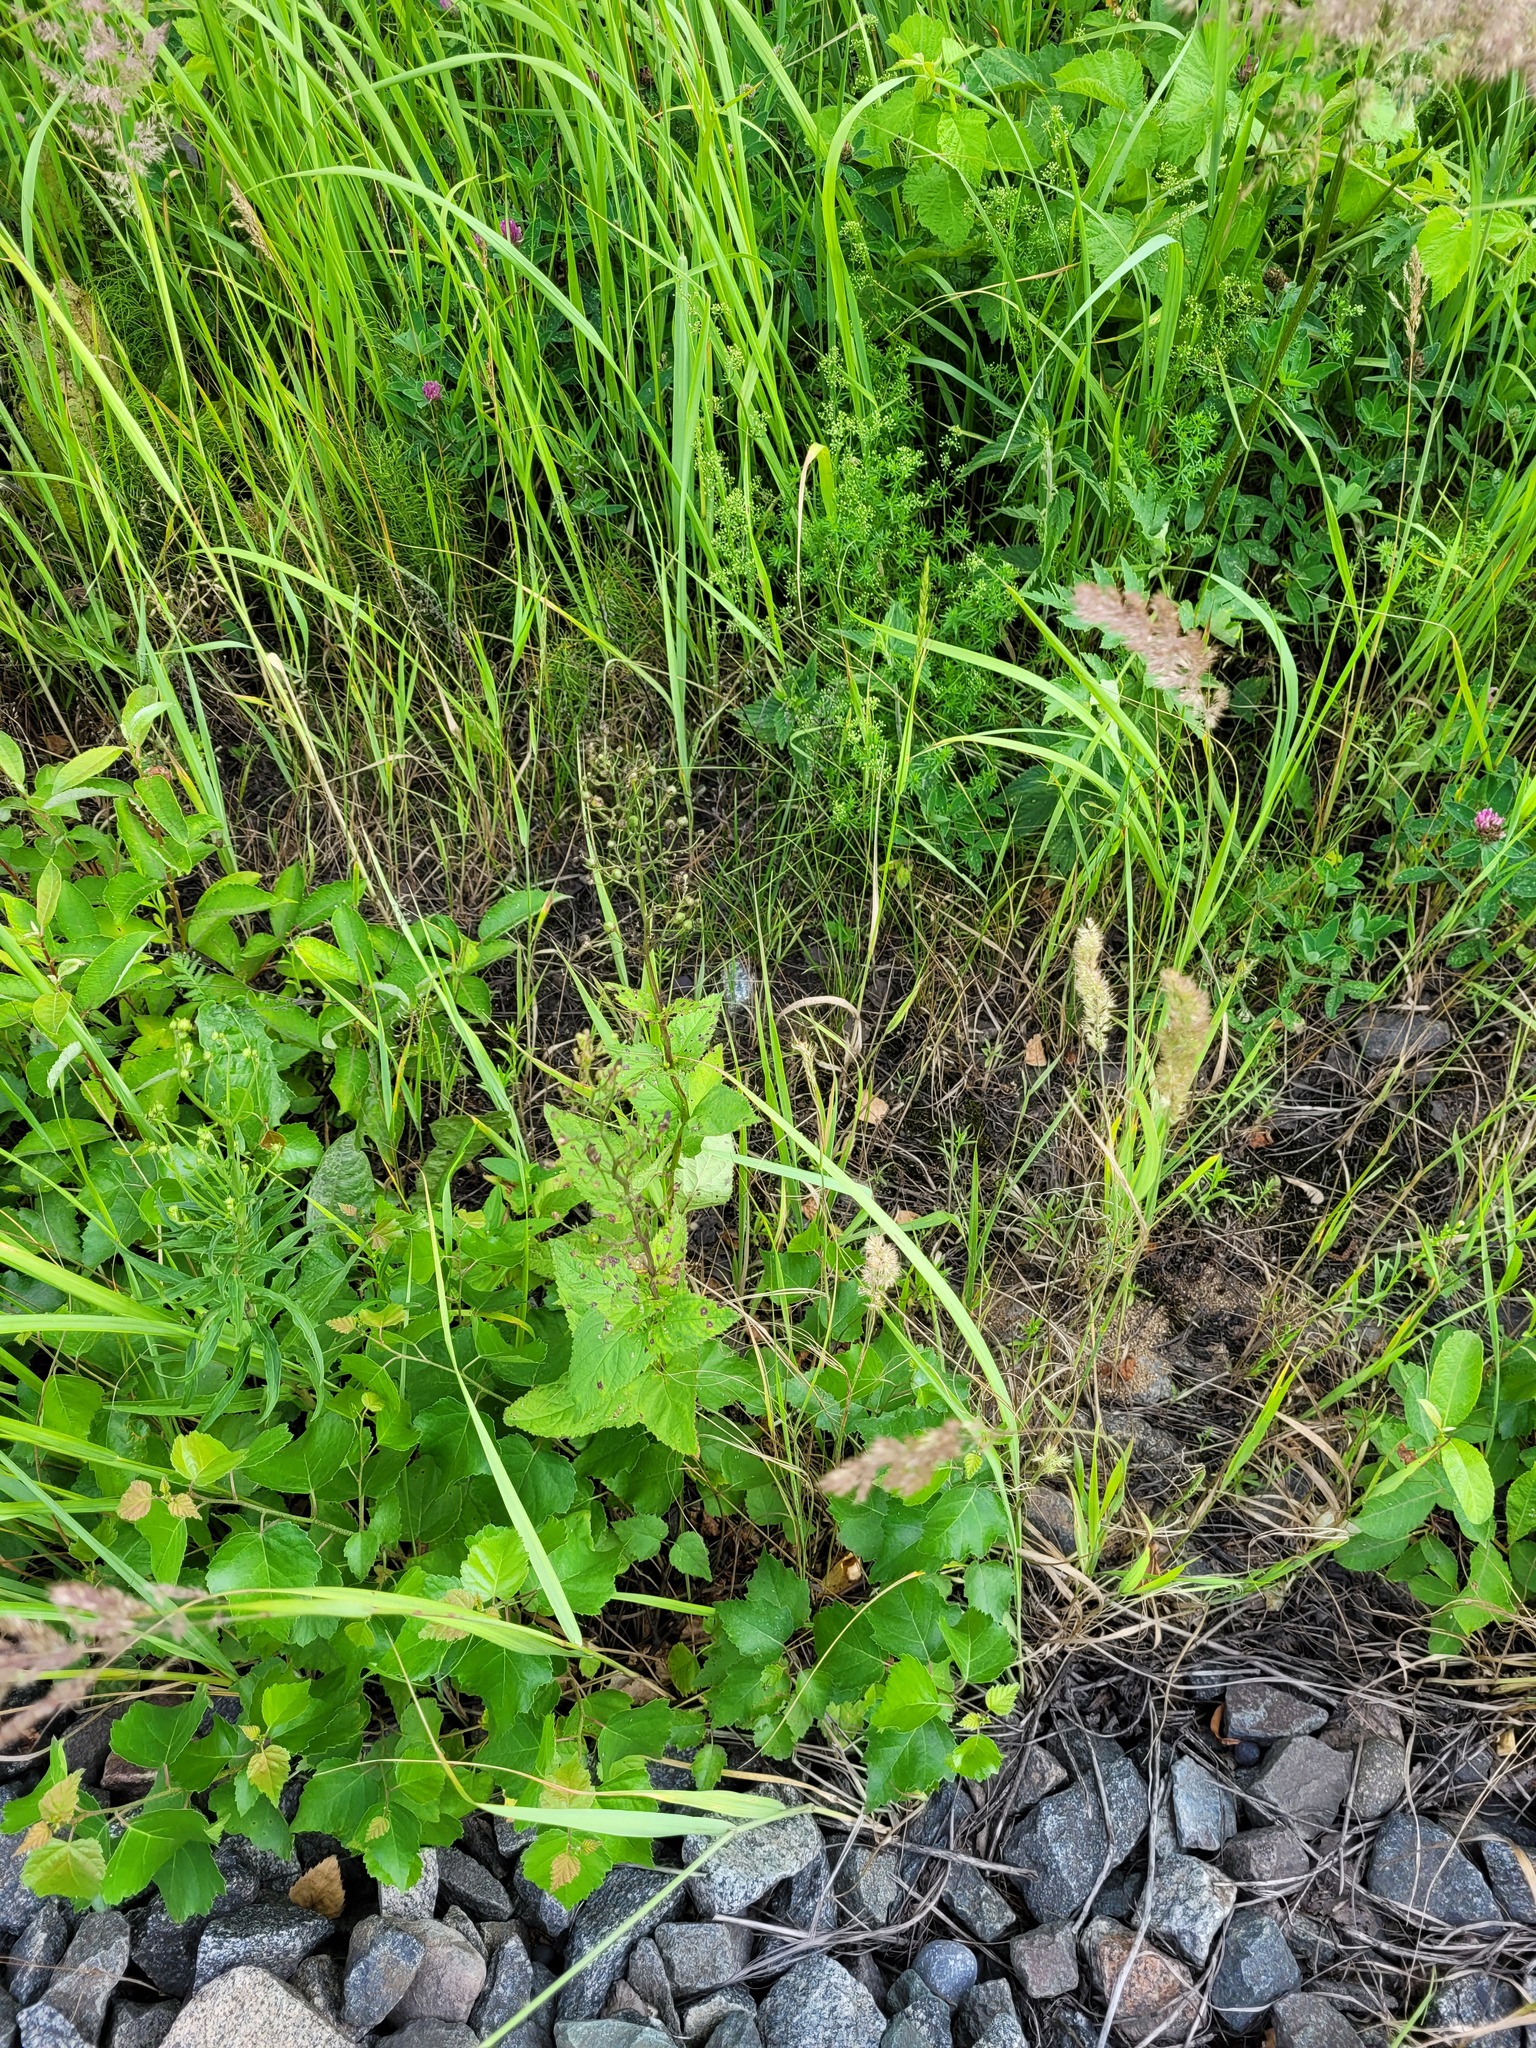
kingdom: Plantae
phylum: Tracheophyta
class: Magnoliopsida
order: Lamiales
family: Scrophulariaceae
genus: Scrophularia
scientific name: Scrophularia nodosa
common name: Common figwort
